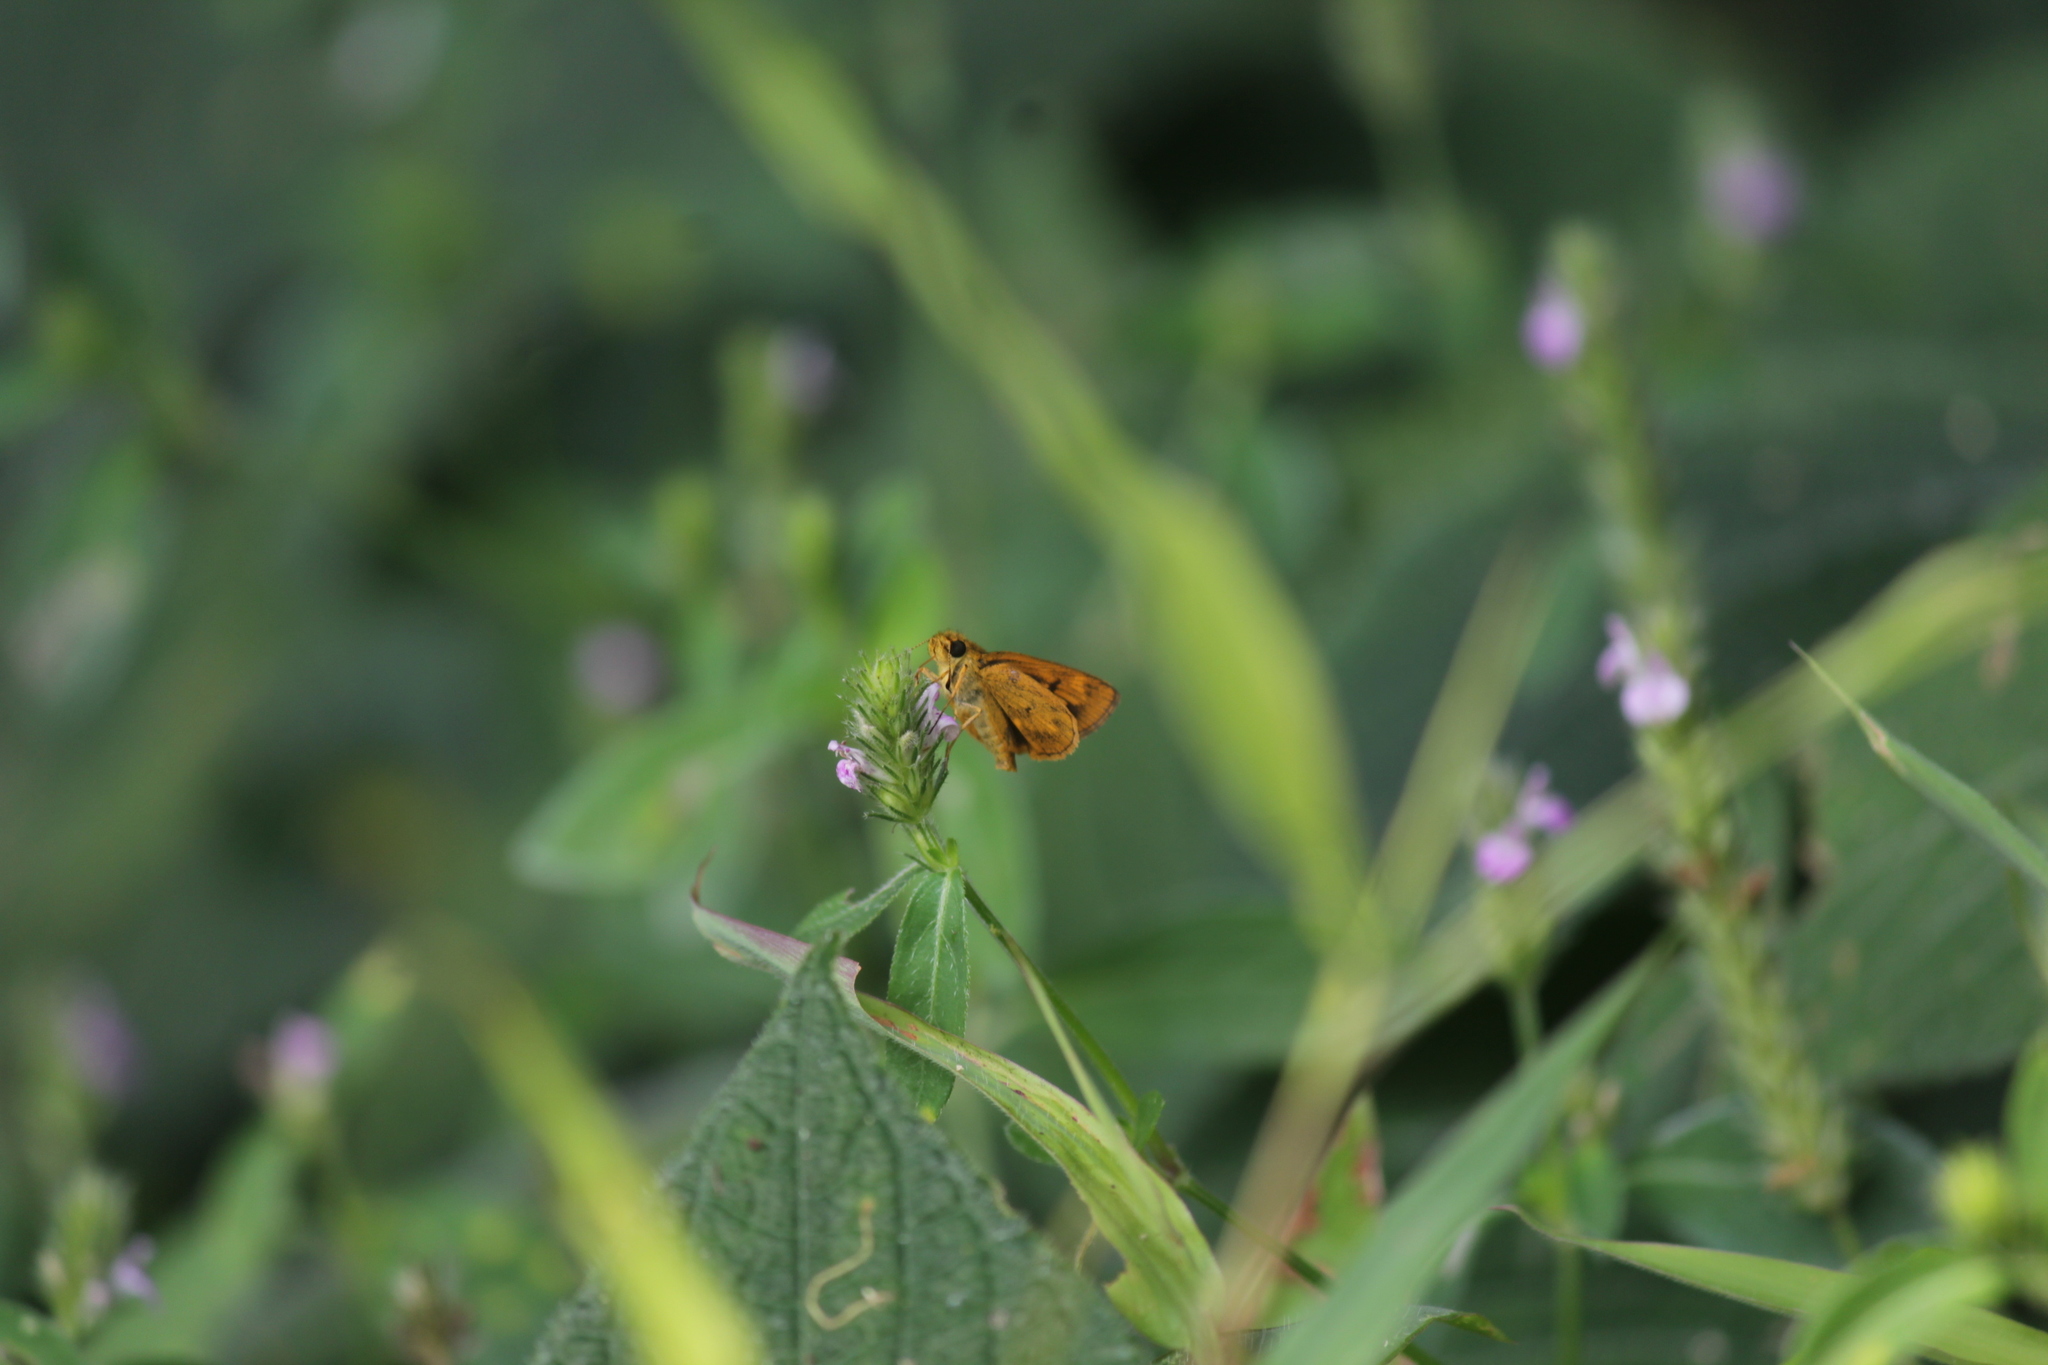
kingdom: Animalia
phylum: Arthropoda
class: Insecta
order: Lepidoptera
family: Hesperiidae
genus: Oriens
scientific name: Oriens goloides
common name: Smaller dartlet
